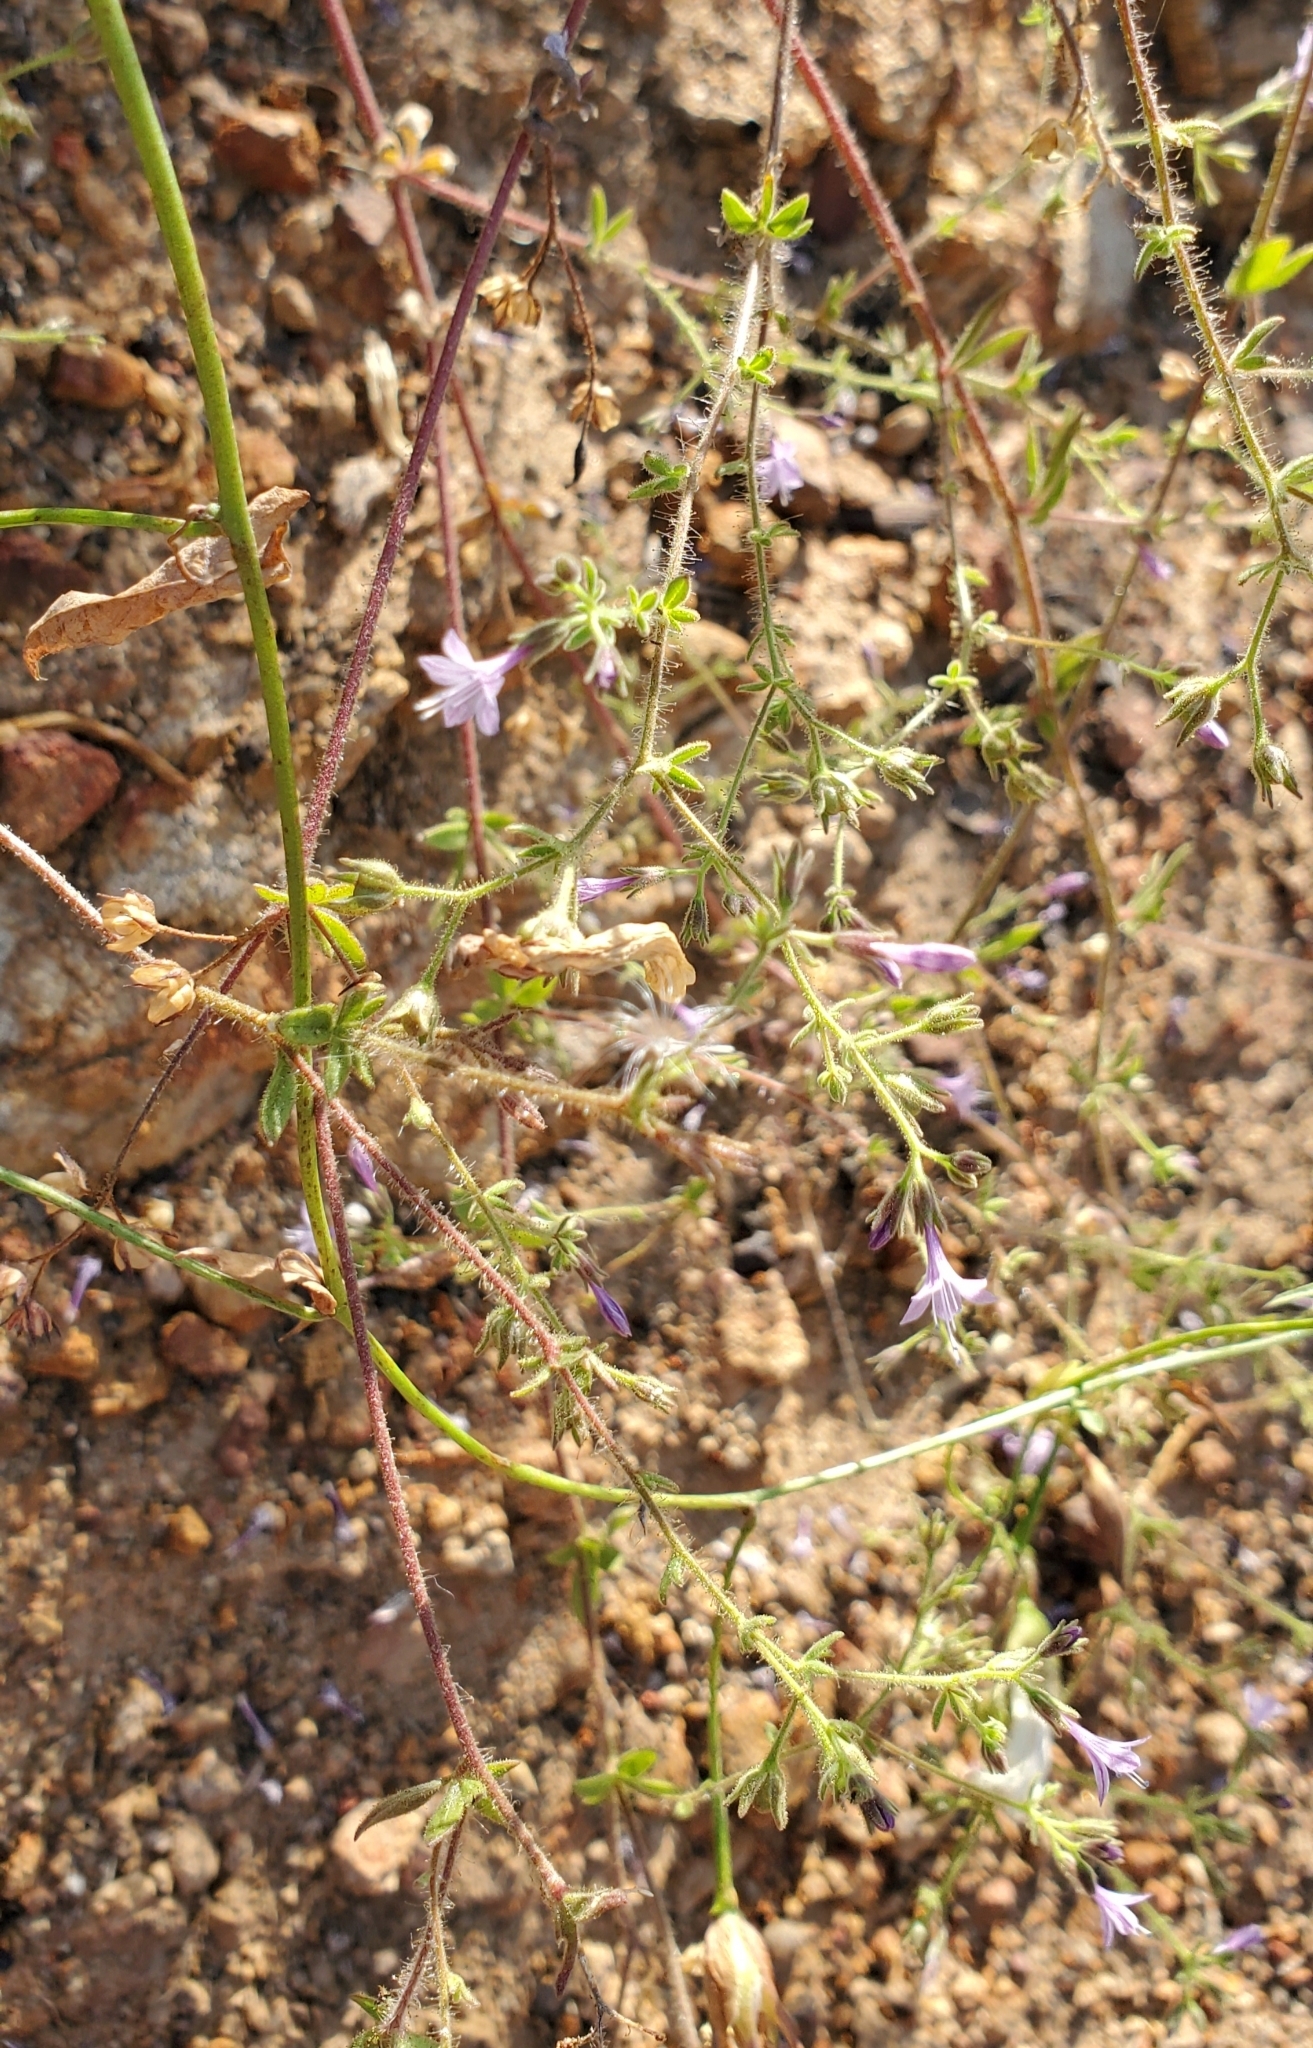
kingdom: Plantae
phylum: Tracheophyta
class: Magnoliopsida
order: Ericales
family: Polemoniaceae
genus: Allophyllum
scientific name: Allophyllum glutinosum
